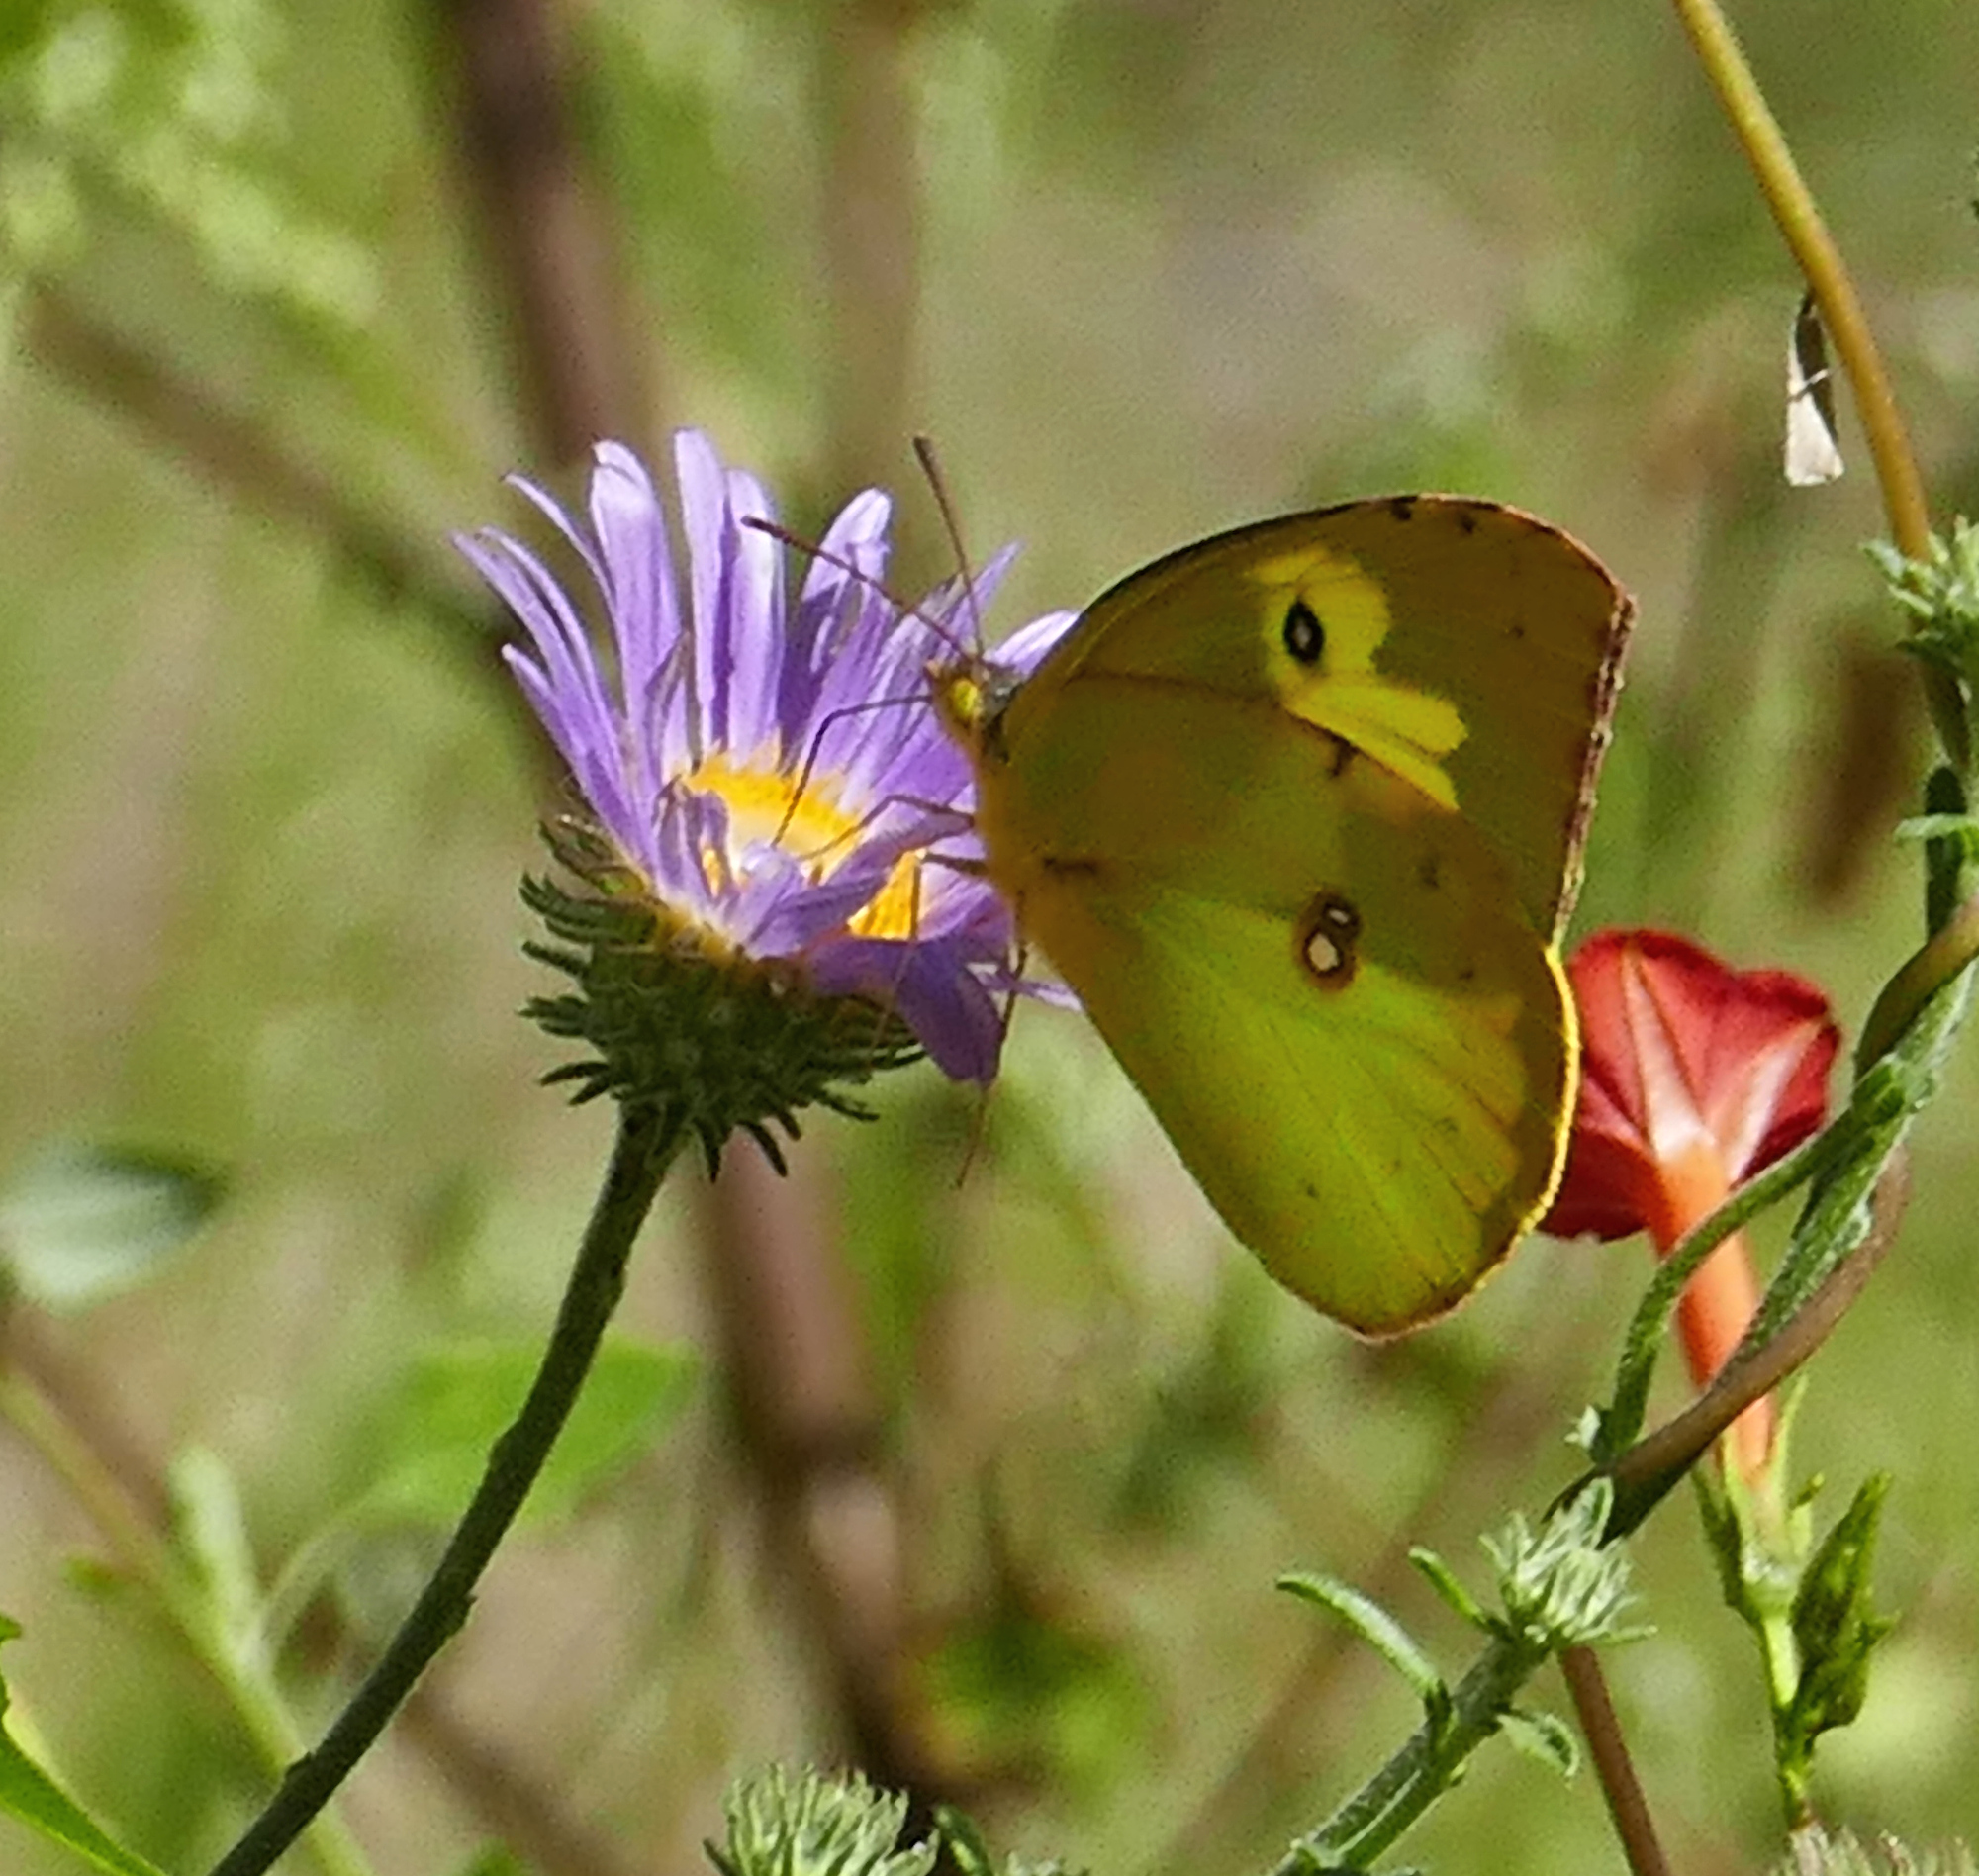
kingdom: Animalia
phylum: Arthropoda
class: Insecta
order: Lepidoptera
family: Pieridae
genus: Zerene
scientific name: Zerene cesonia
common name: Southern dogface
